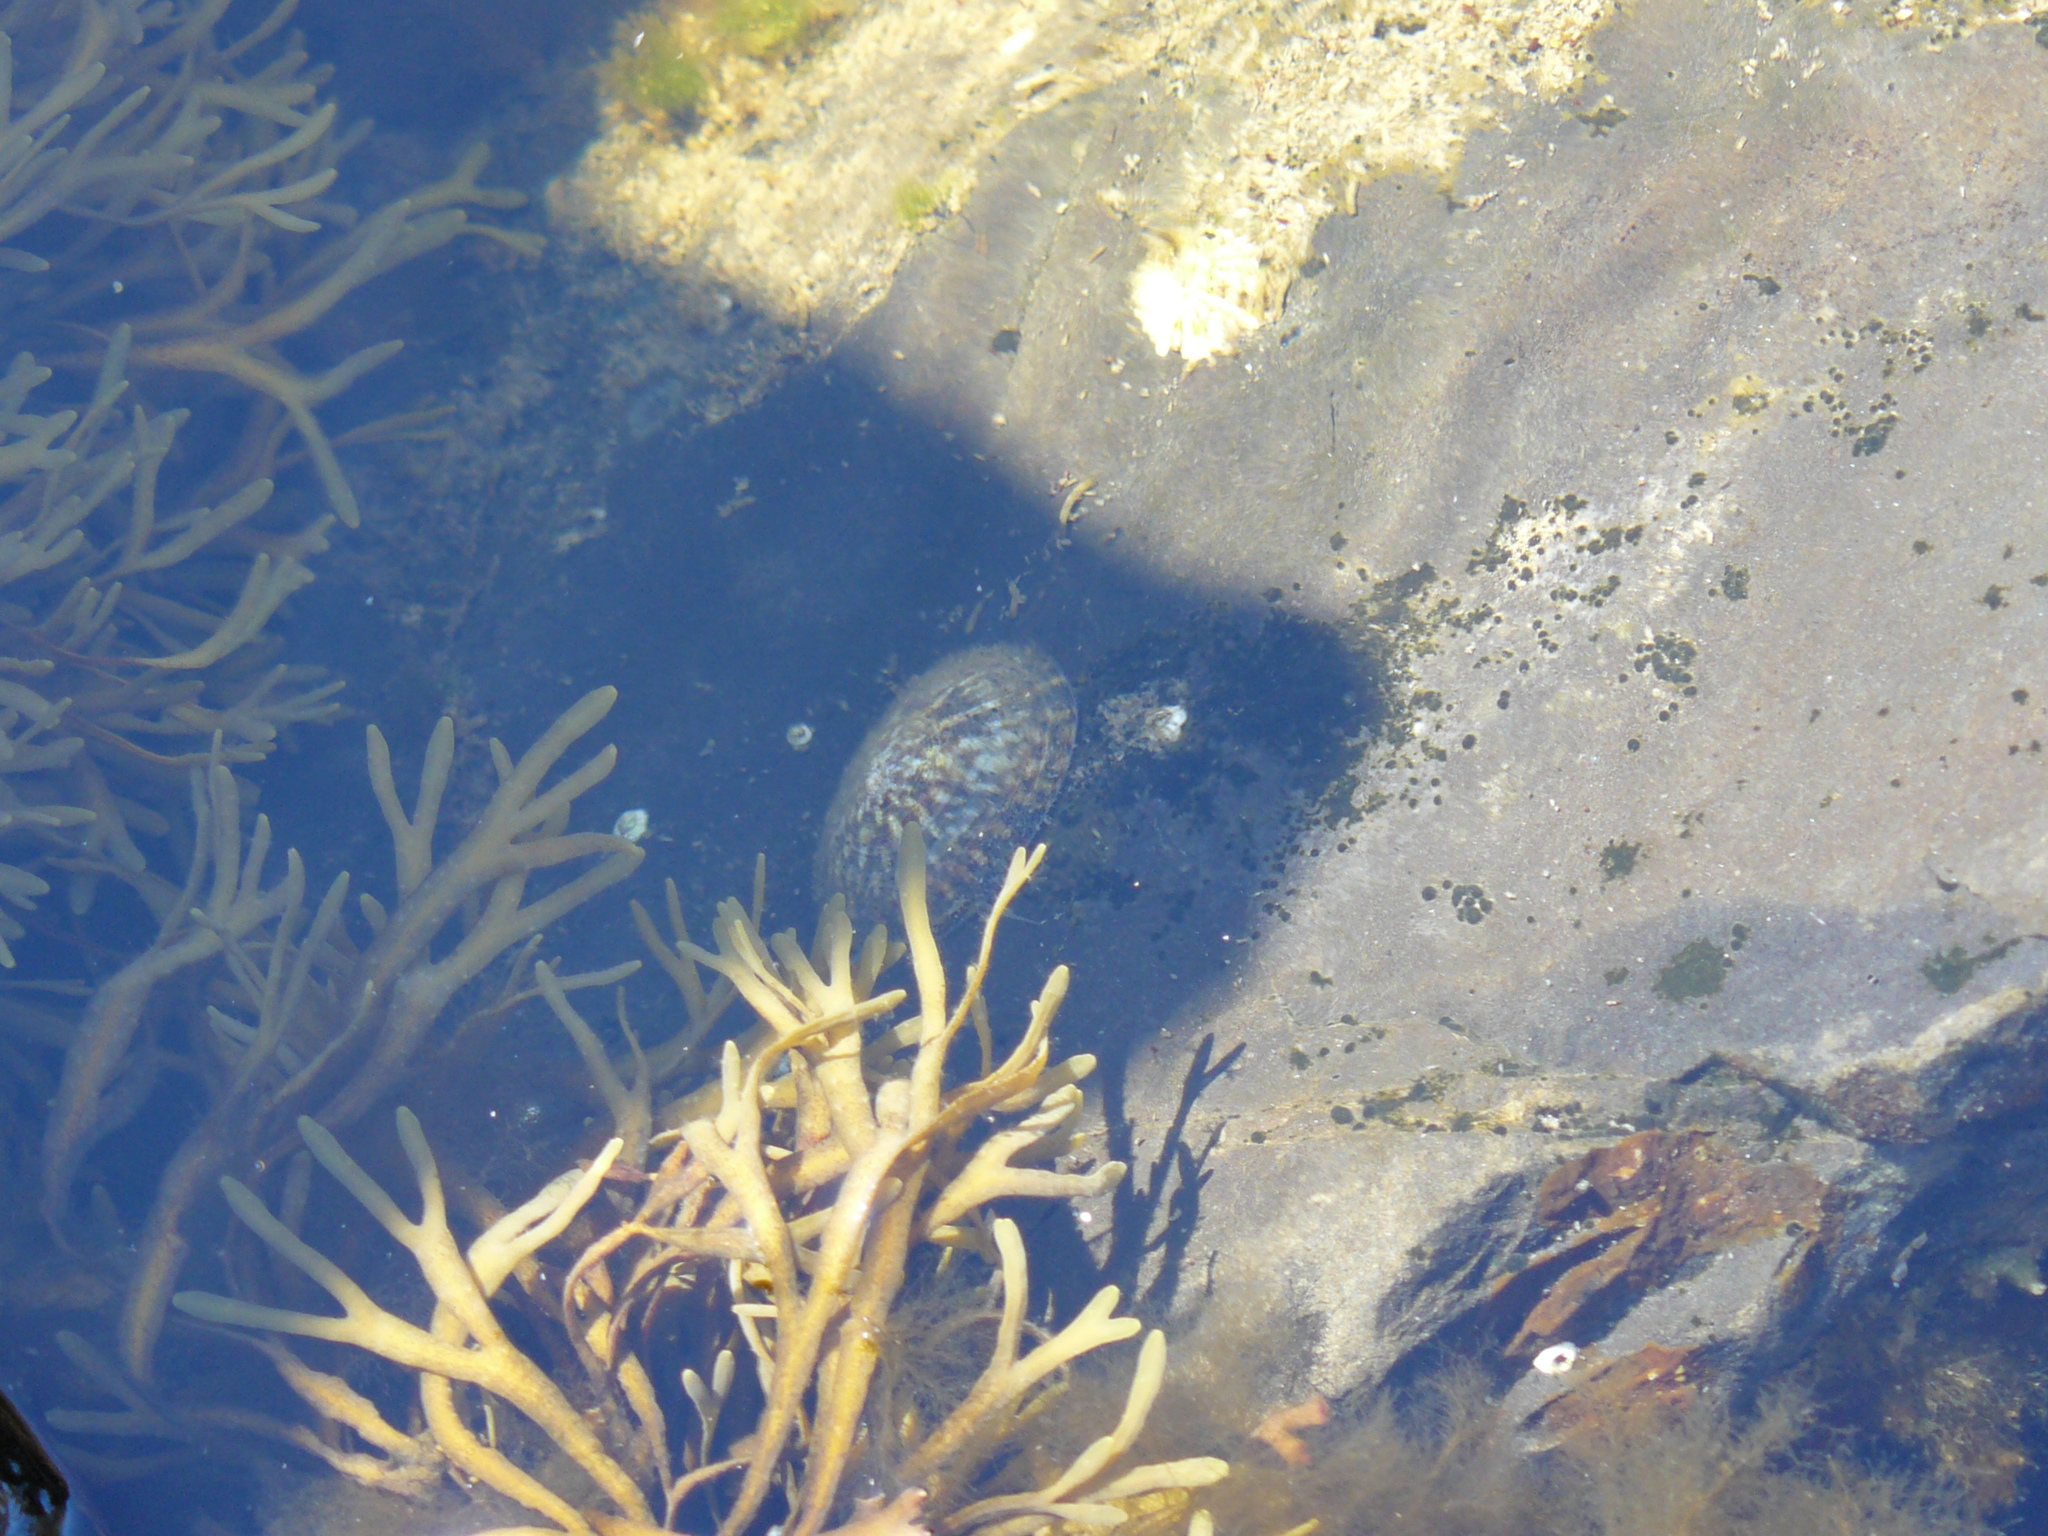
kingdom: Animalia
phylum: Mollusca
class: Gastropoda
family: Lottiidae
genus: Testudinalia
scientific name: Testudinalia testudinalis
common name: Common tortoiseshell limpet
